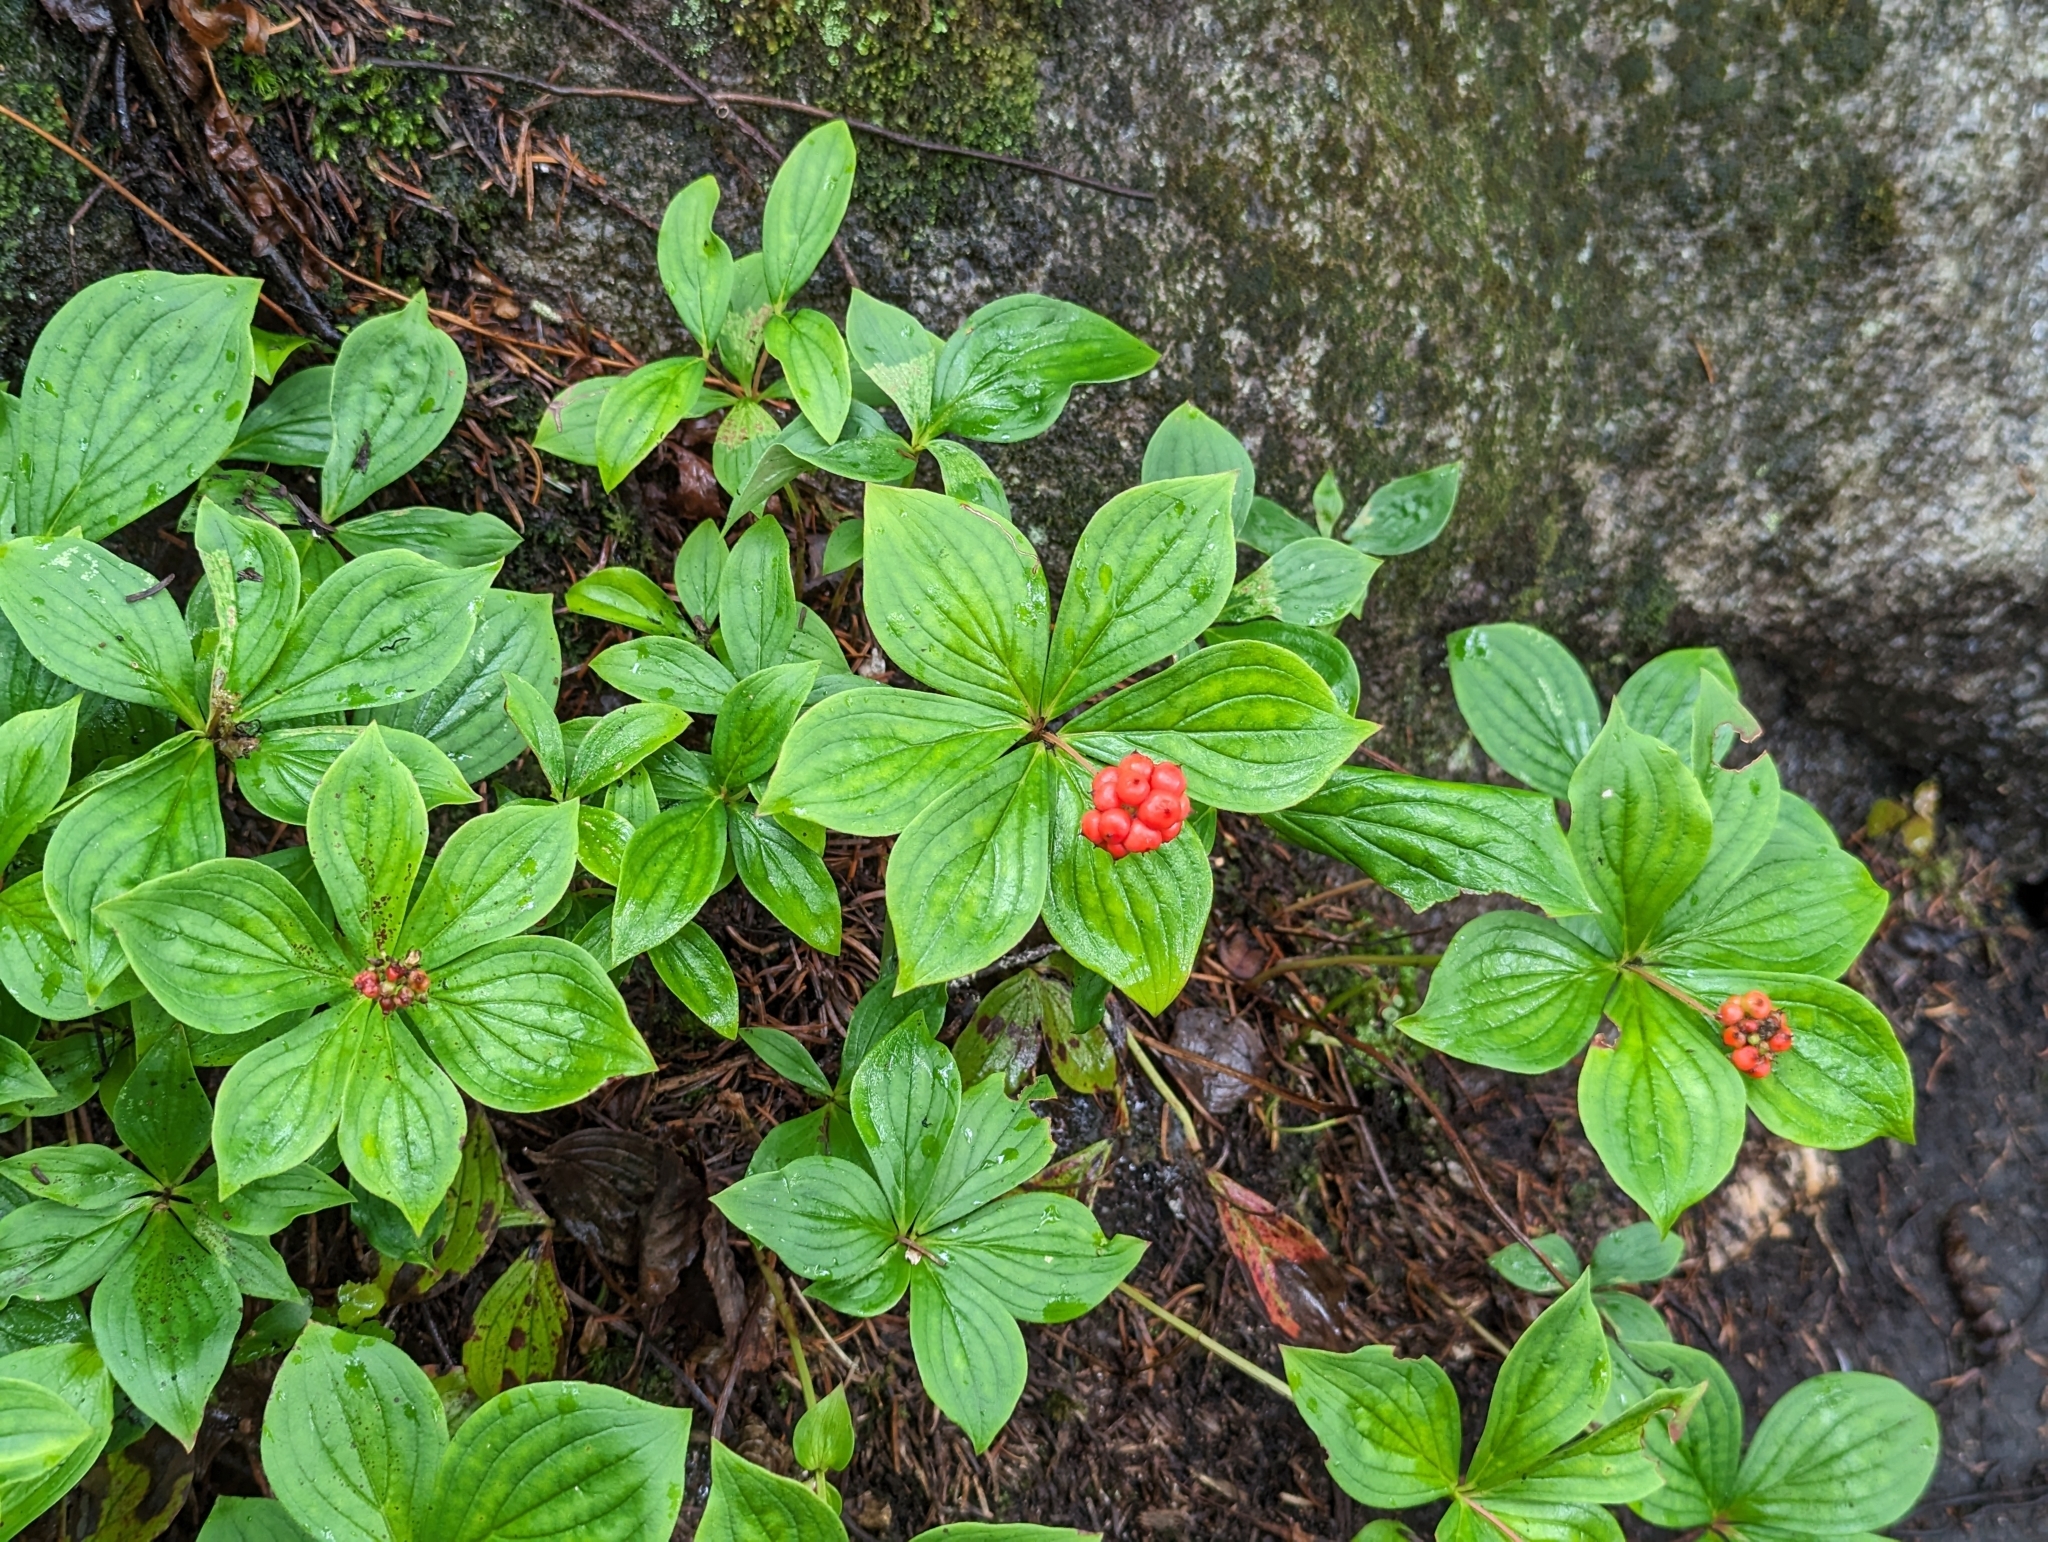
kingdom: Plantae
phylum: Tracheophyta
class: Magnoliopsida
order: Cornales
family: Cornaceae
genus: Cornus
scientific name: Cornus canadensis
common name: Creeping dogwood
